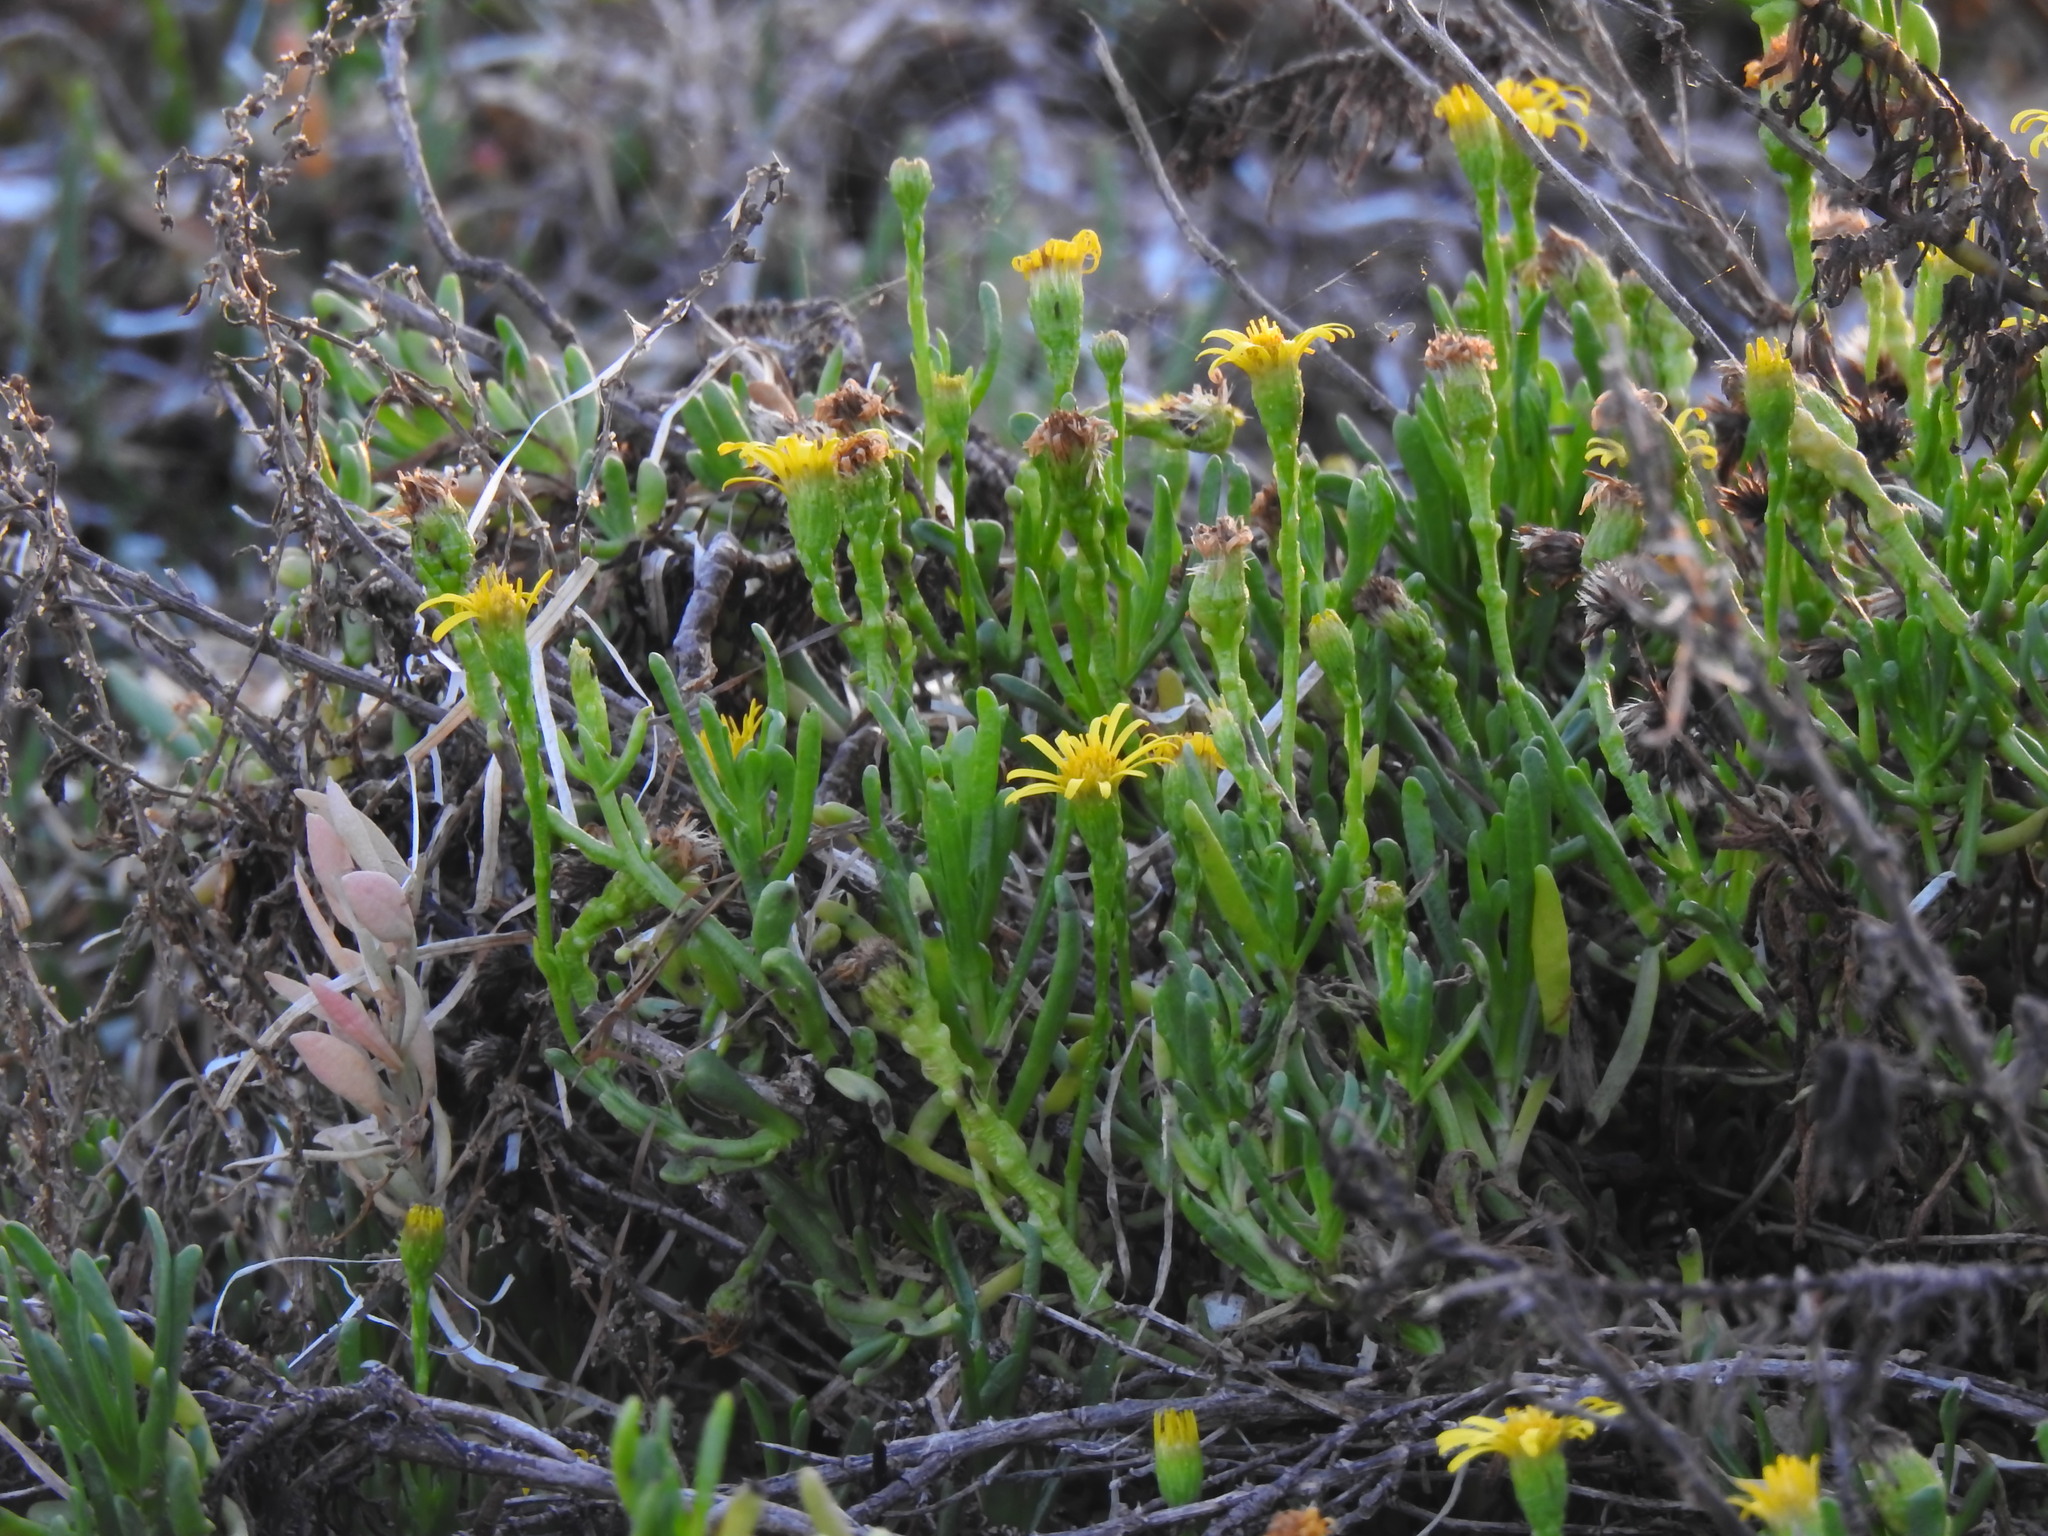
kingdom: Plantae
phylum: Tracheophyta
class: Magnoliopsida
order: Asterales
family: Asteraceae
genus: Limbarda
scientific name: Limbarda crithmoides
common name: Golden samphire
